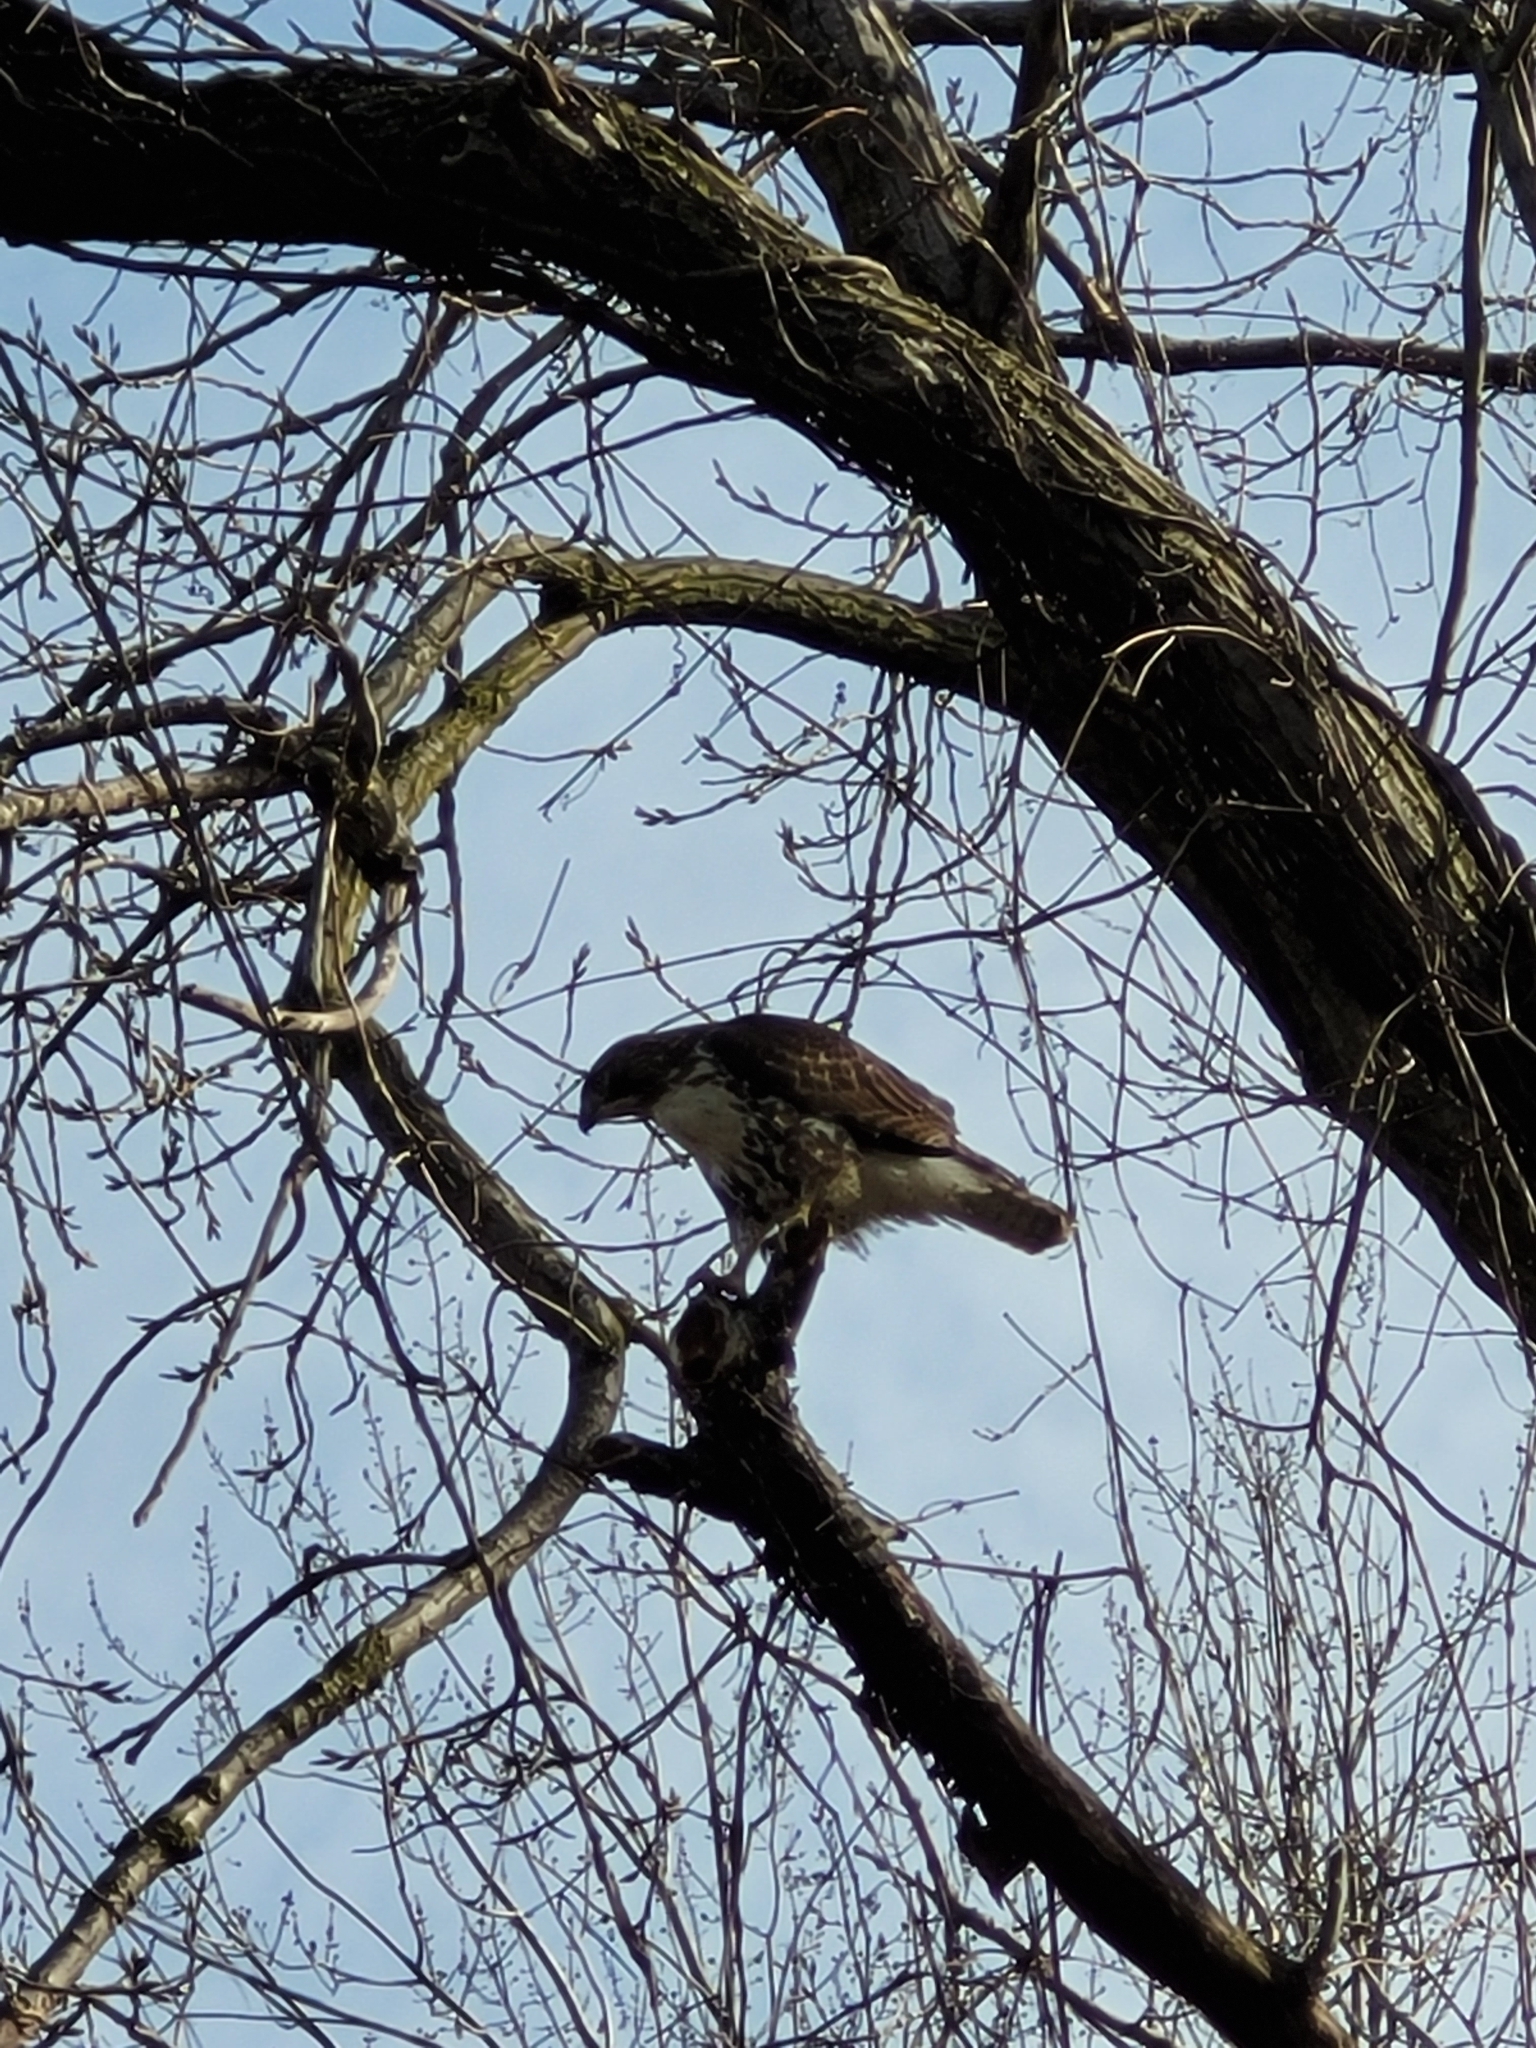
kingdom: Animalia
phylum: Chordata
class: Aves
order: Accipitriformes
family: Accipitridae
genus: Buteo
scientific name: Buteo jamaicensis
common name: Red-tailed hawk
